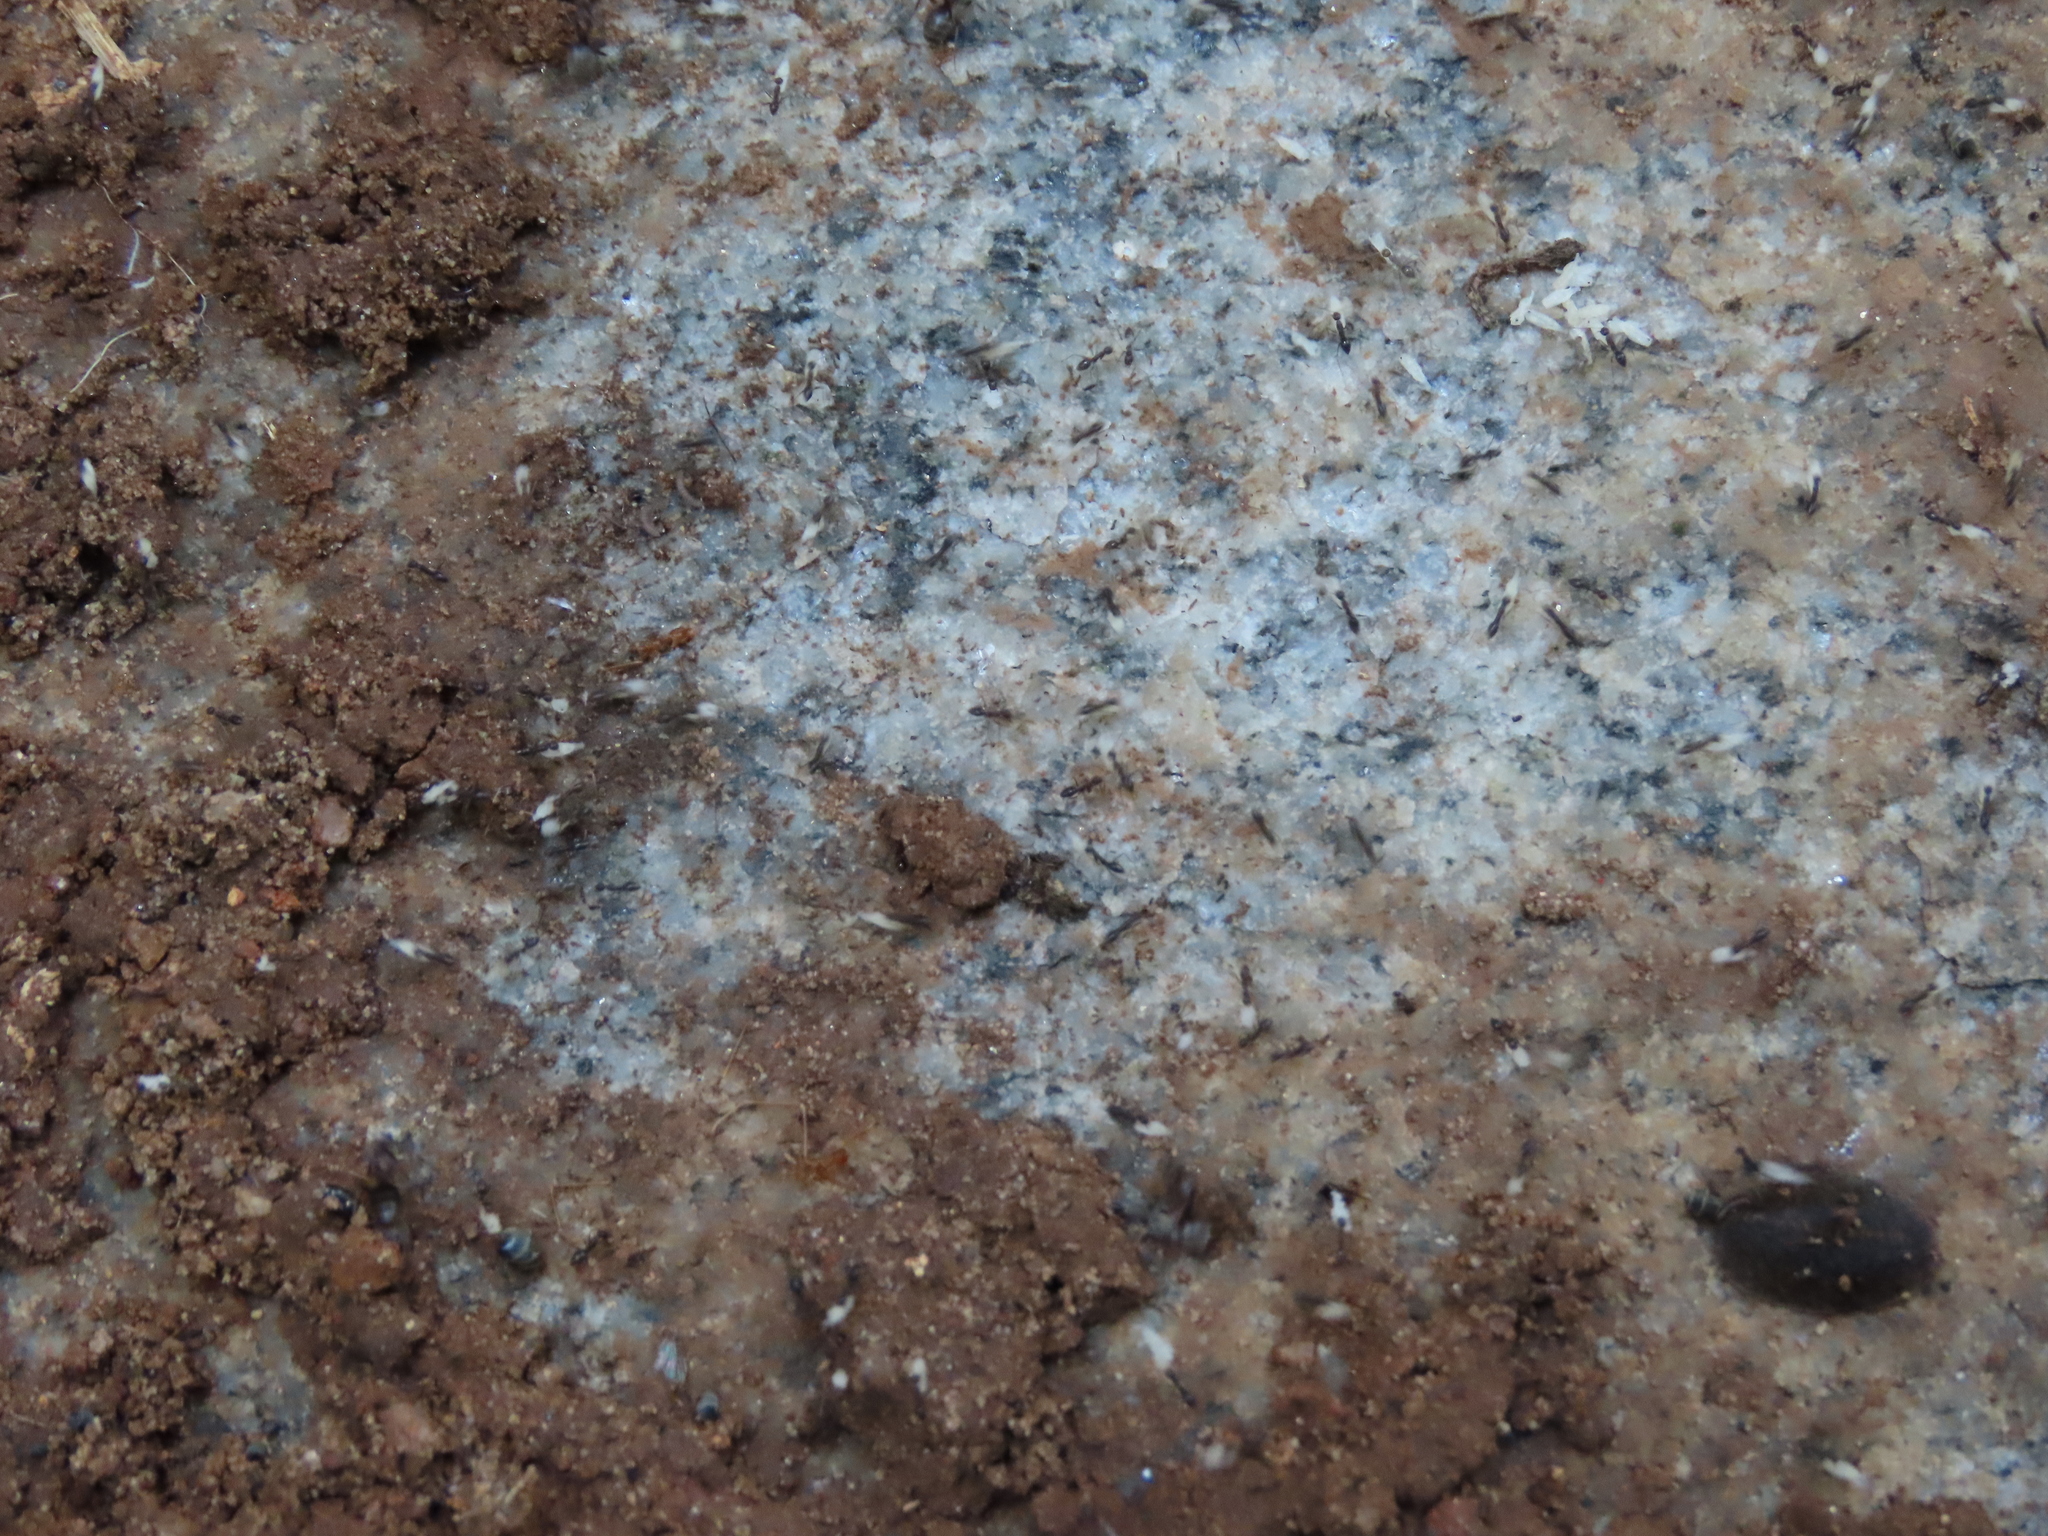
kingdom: Animalia
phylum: Arthropoda
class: Insecta
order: Hymenoptera
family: Formicidae
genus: Paratrechina
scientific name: Paratrechina longicornis
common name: Longhorned crazy ant
